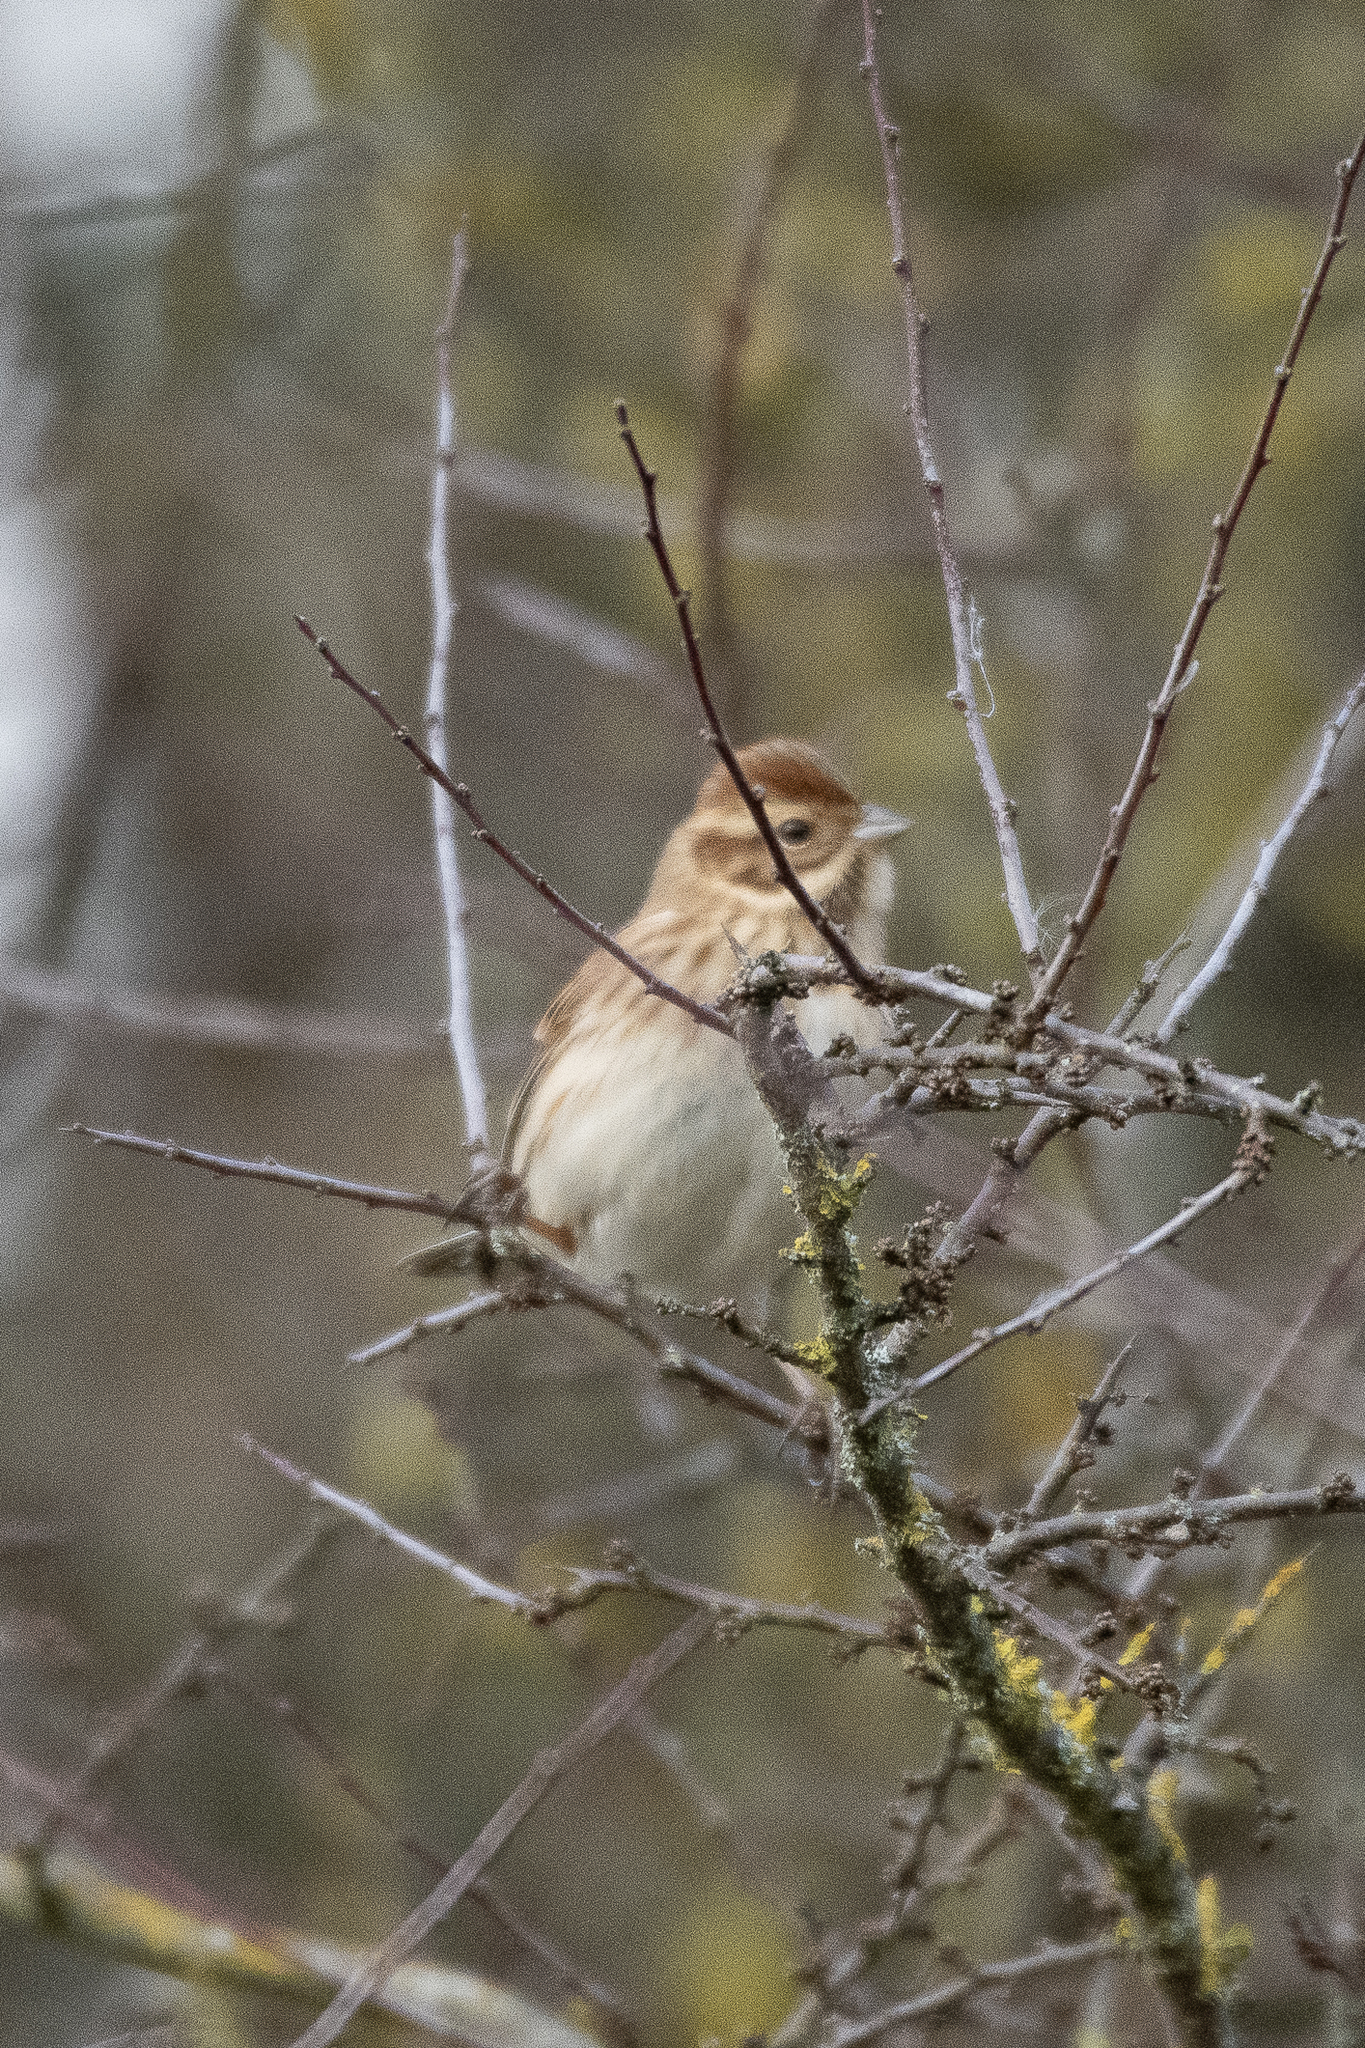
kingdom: Animalia
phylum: Chordata
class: Aves
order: Passeriformes
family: Emberizidae
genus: Emberiza
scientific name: Emberiza schoeniclus
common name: Reed bunting
